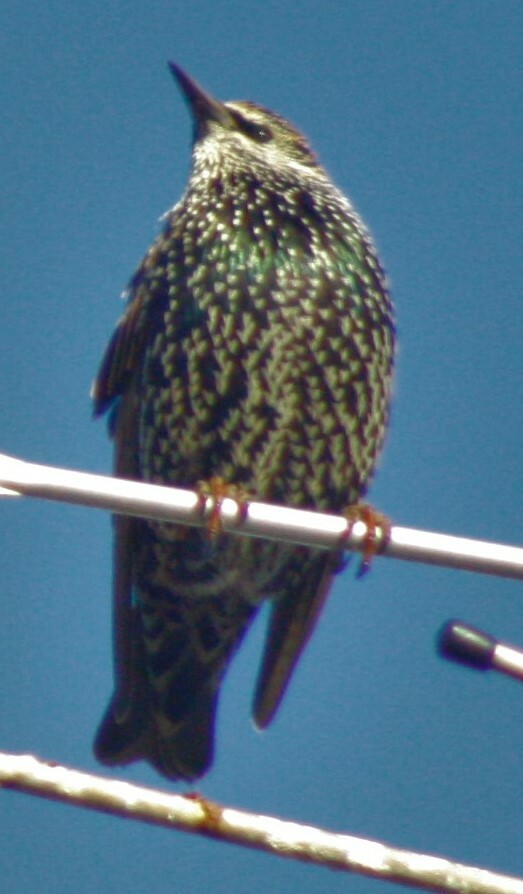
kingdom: Animalia
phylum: Chordata
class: Aves
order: Passeriformes
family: Sturnidae
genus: Sturnus
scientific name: Sturnus vulgaris
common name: Common starling
